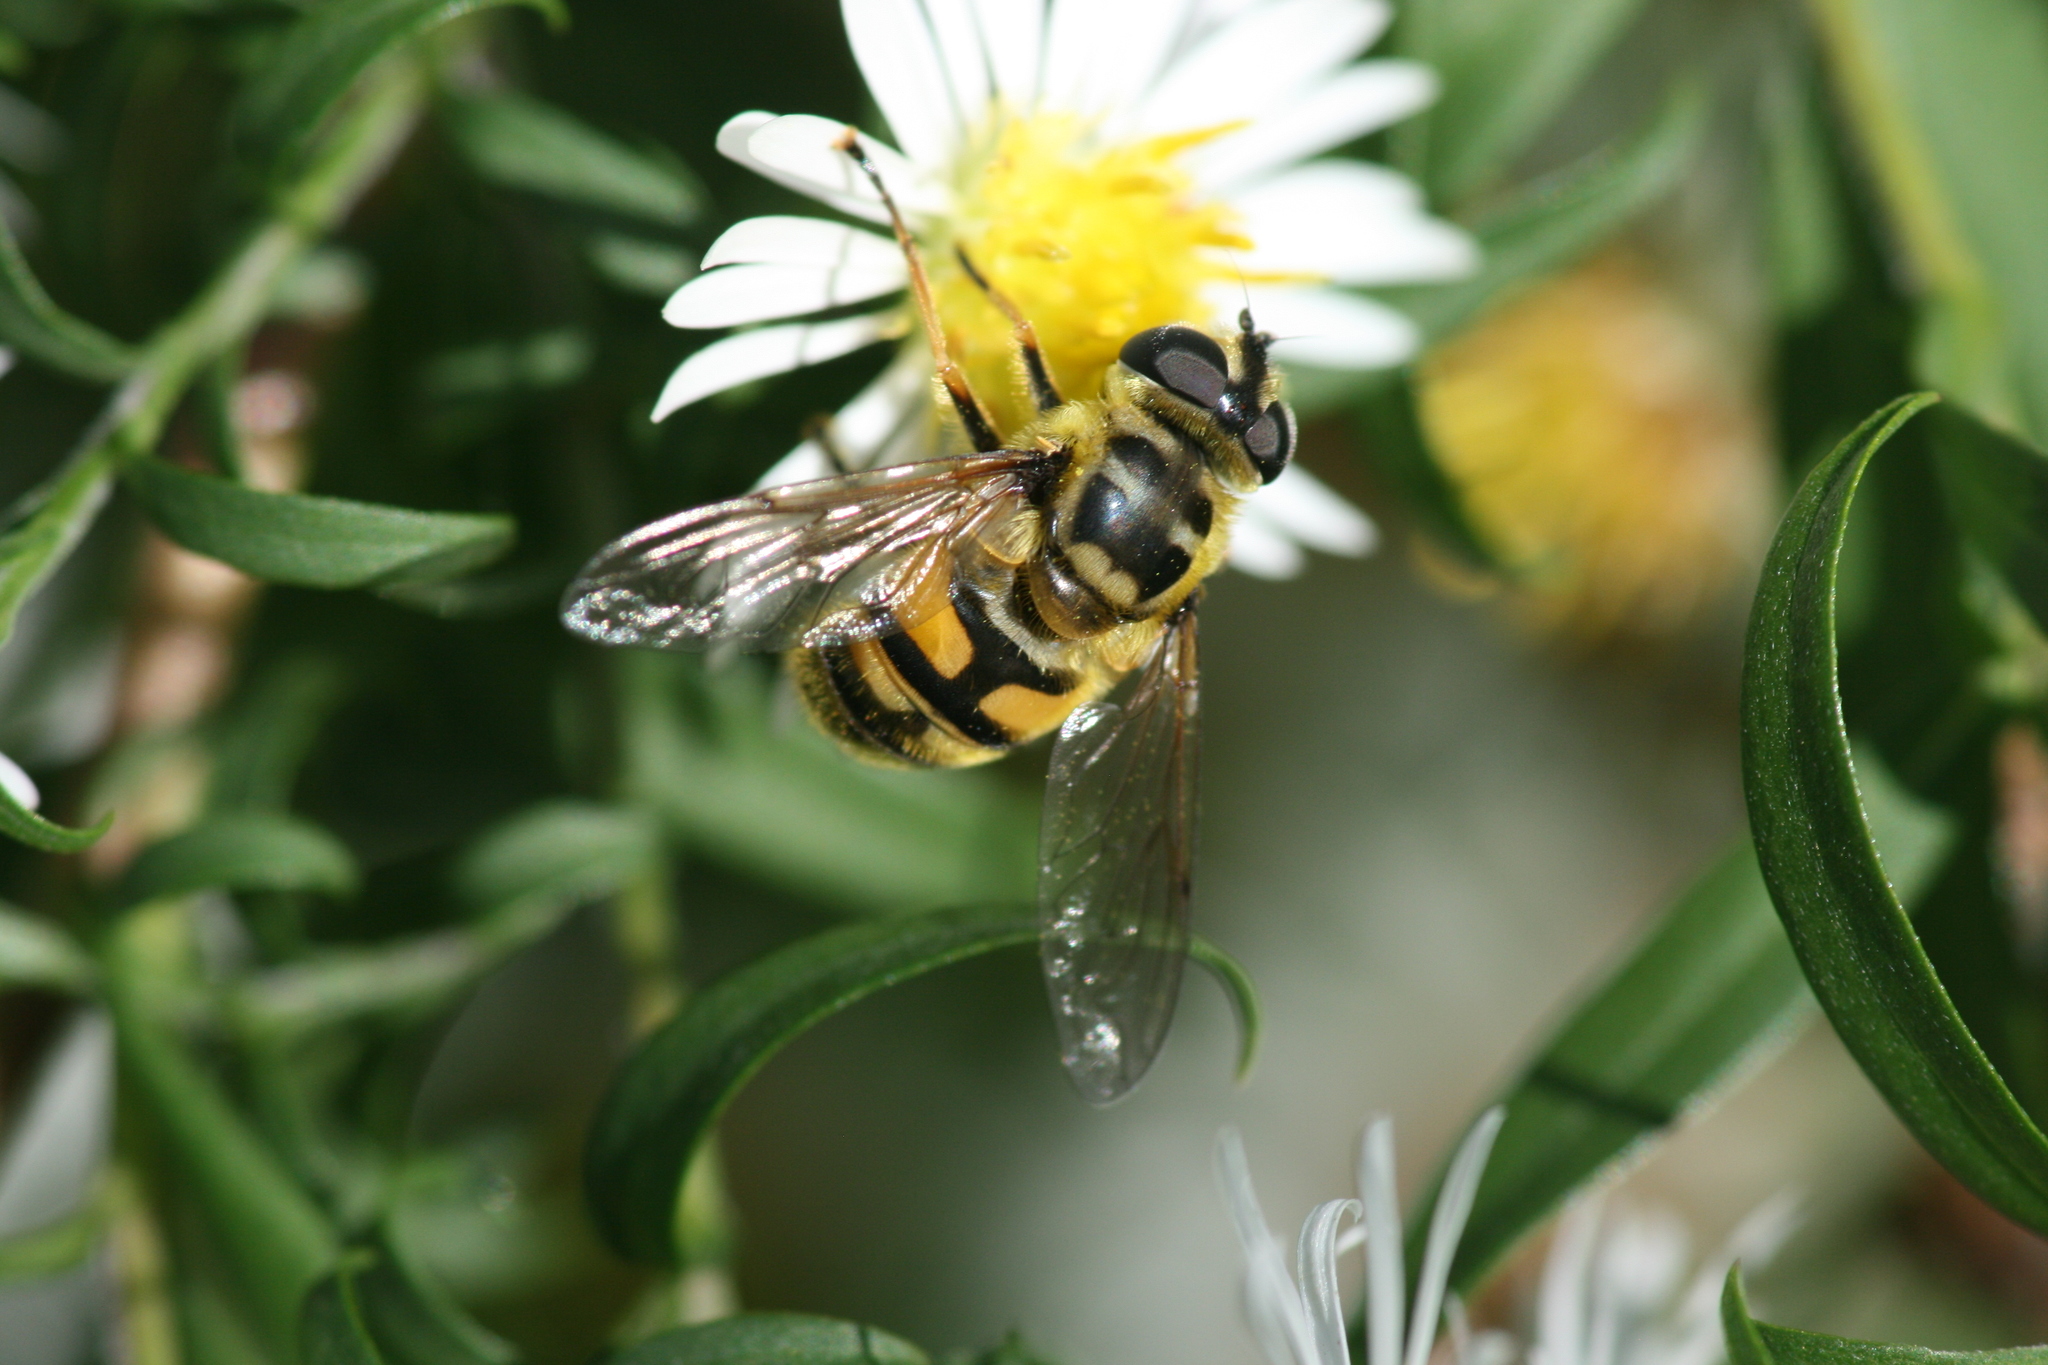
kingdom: Animalia
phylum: Arthropoda
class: Insecta
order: Diptera
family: Syrphidae
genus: Myathropa
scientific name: Myathropa florea
